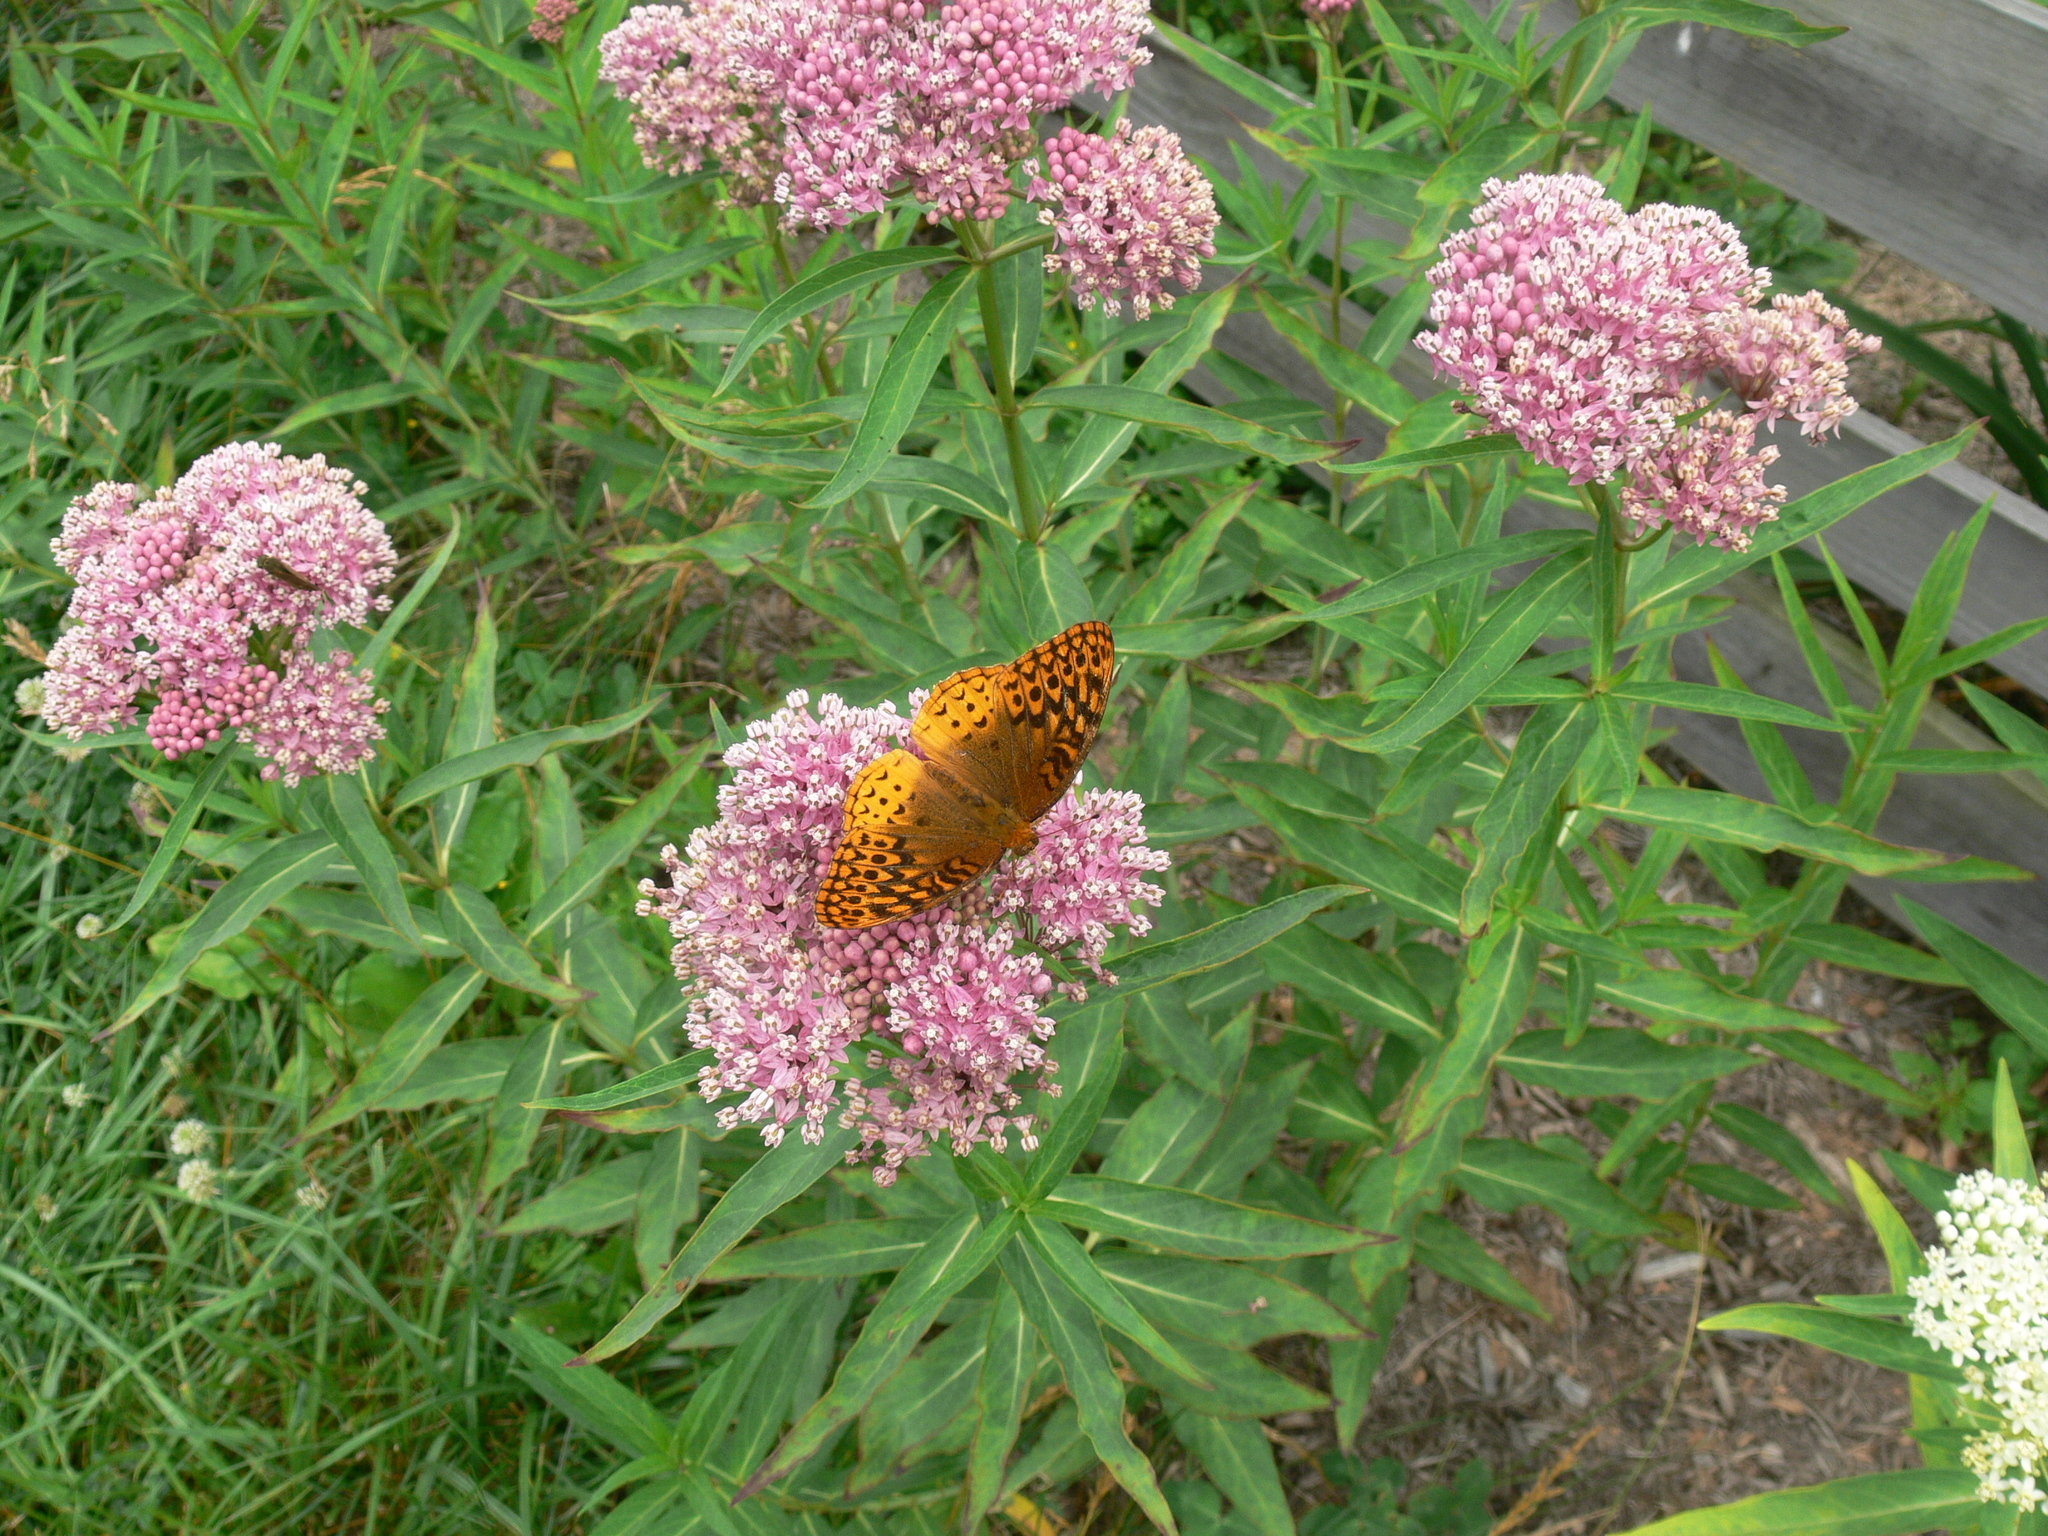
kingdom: Animalia
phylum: Arthropoda
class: Insecta
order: Lepidoptera
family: Nymphalidae
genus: Speyeria
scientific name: Speyeria cybele
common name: Great spangled fritillary
